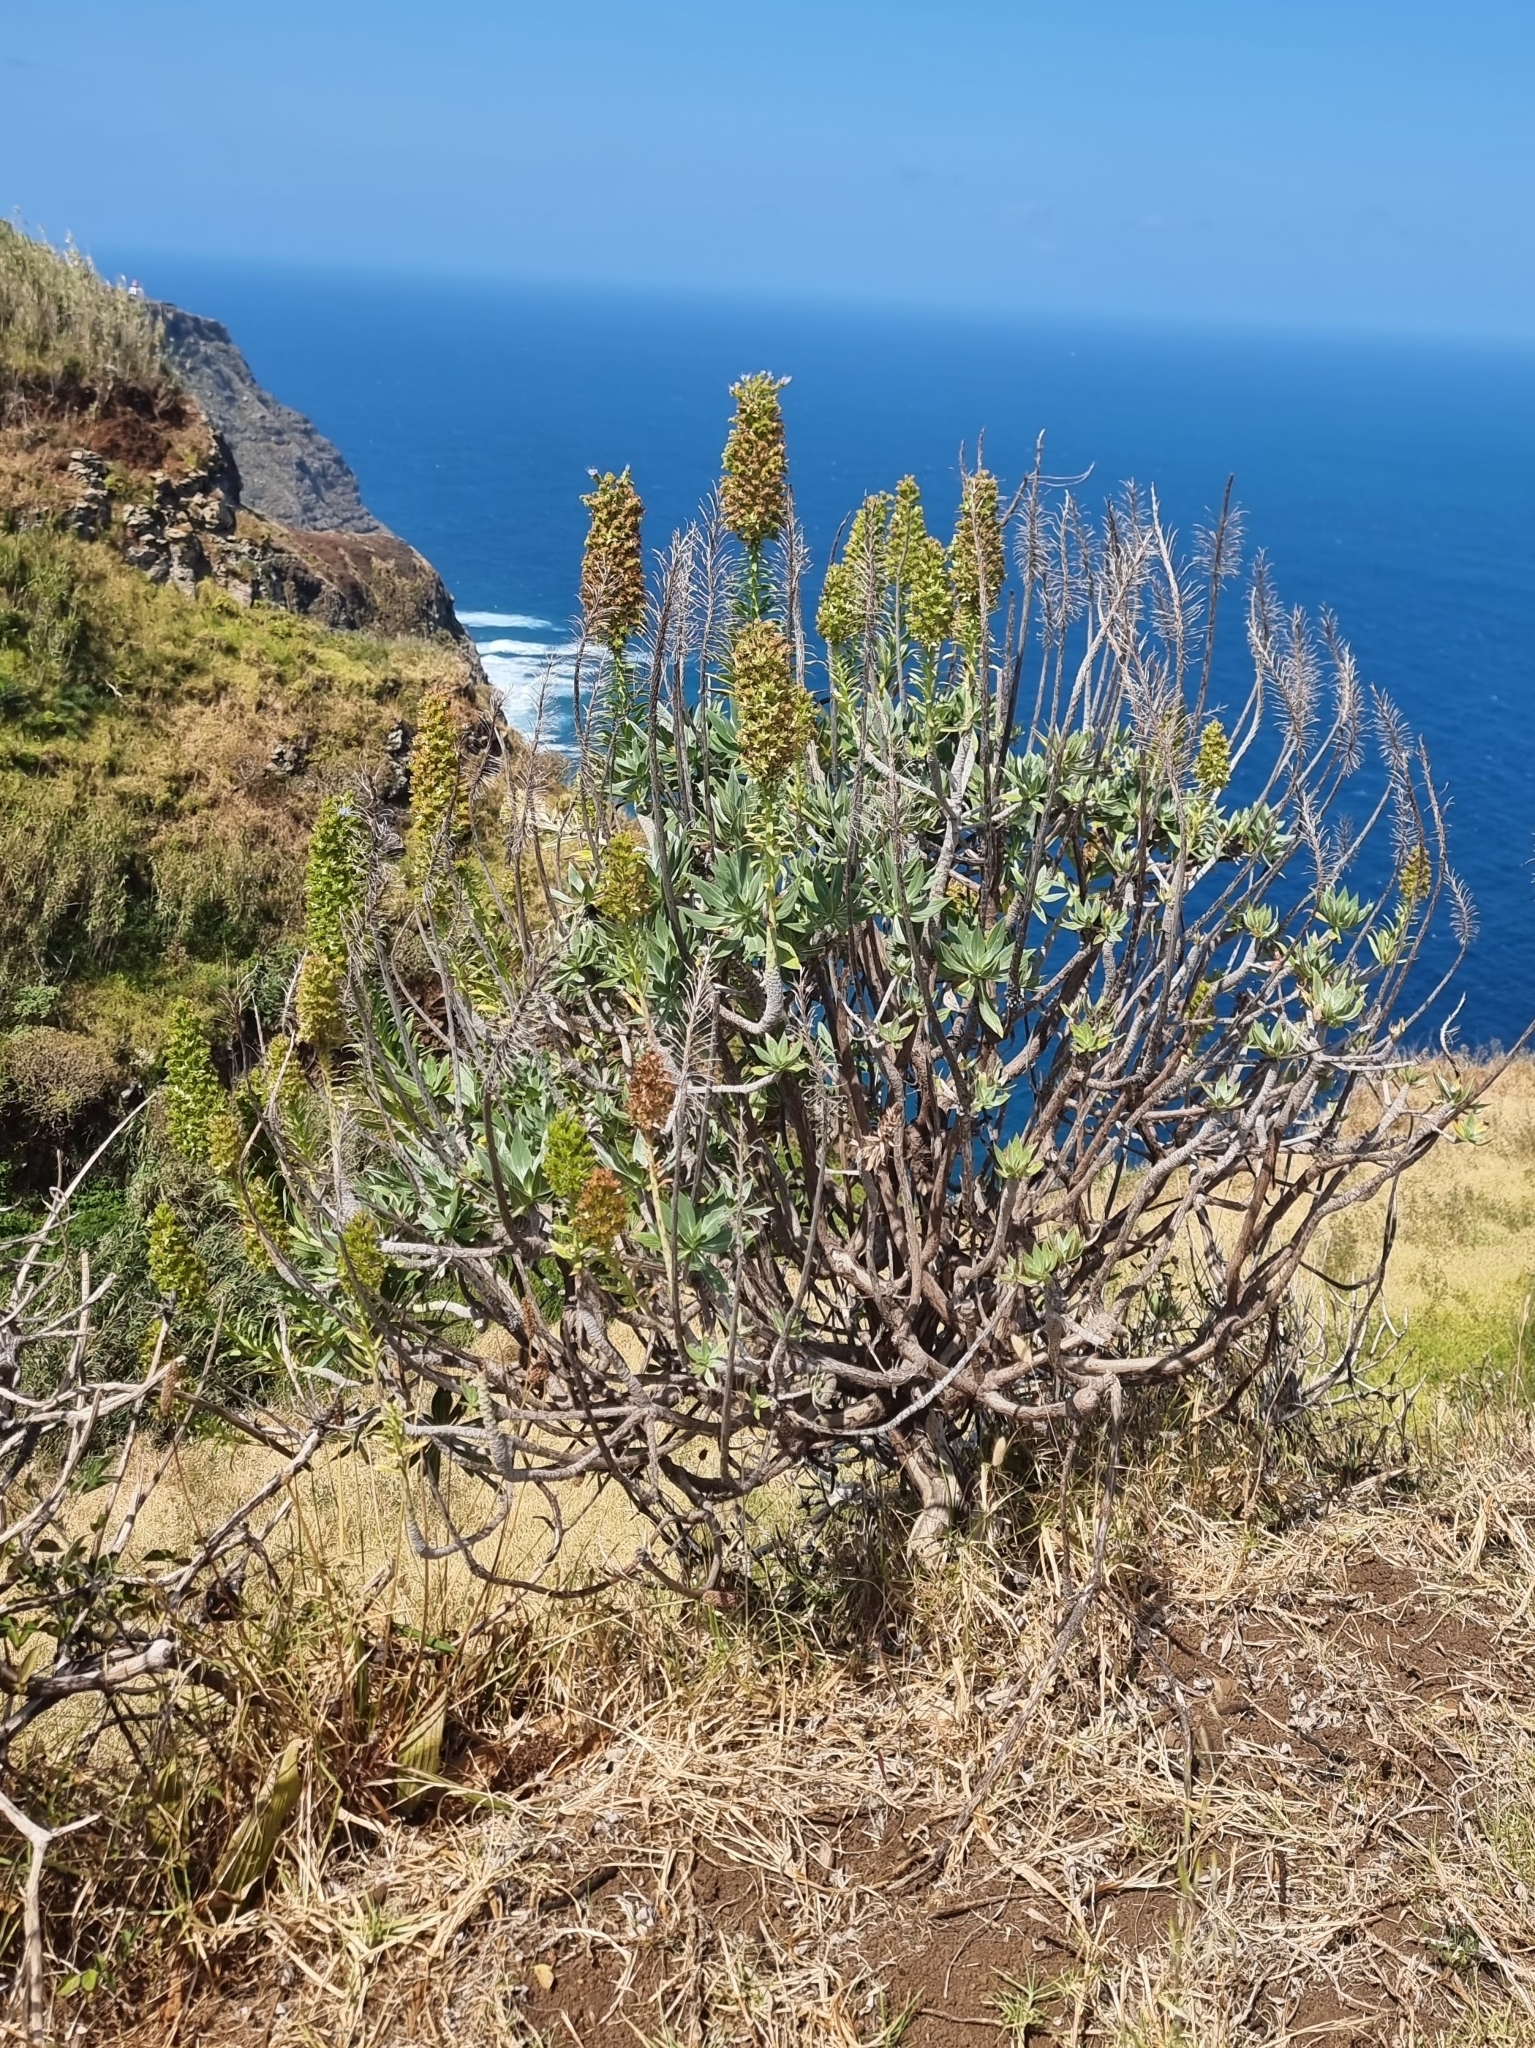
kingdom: Plantae
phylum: Tracheophyta
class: Magnoliopsida
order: Boraginales
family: Boraginaceae
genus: Echium
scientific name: Echium nervosum
